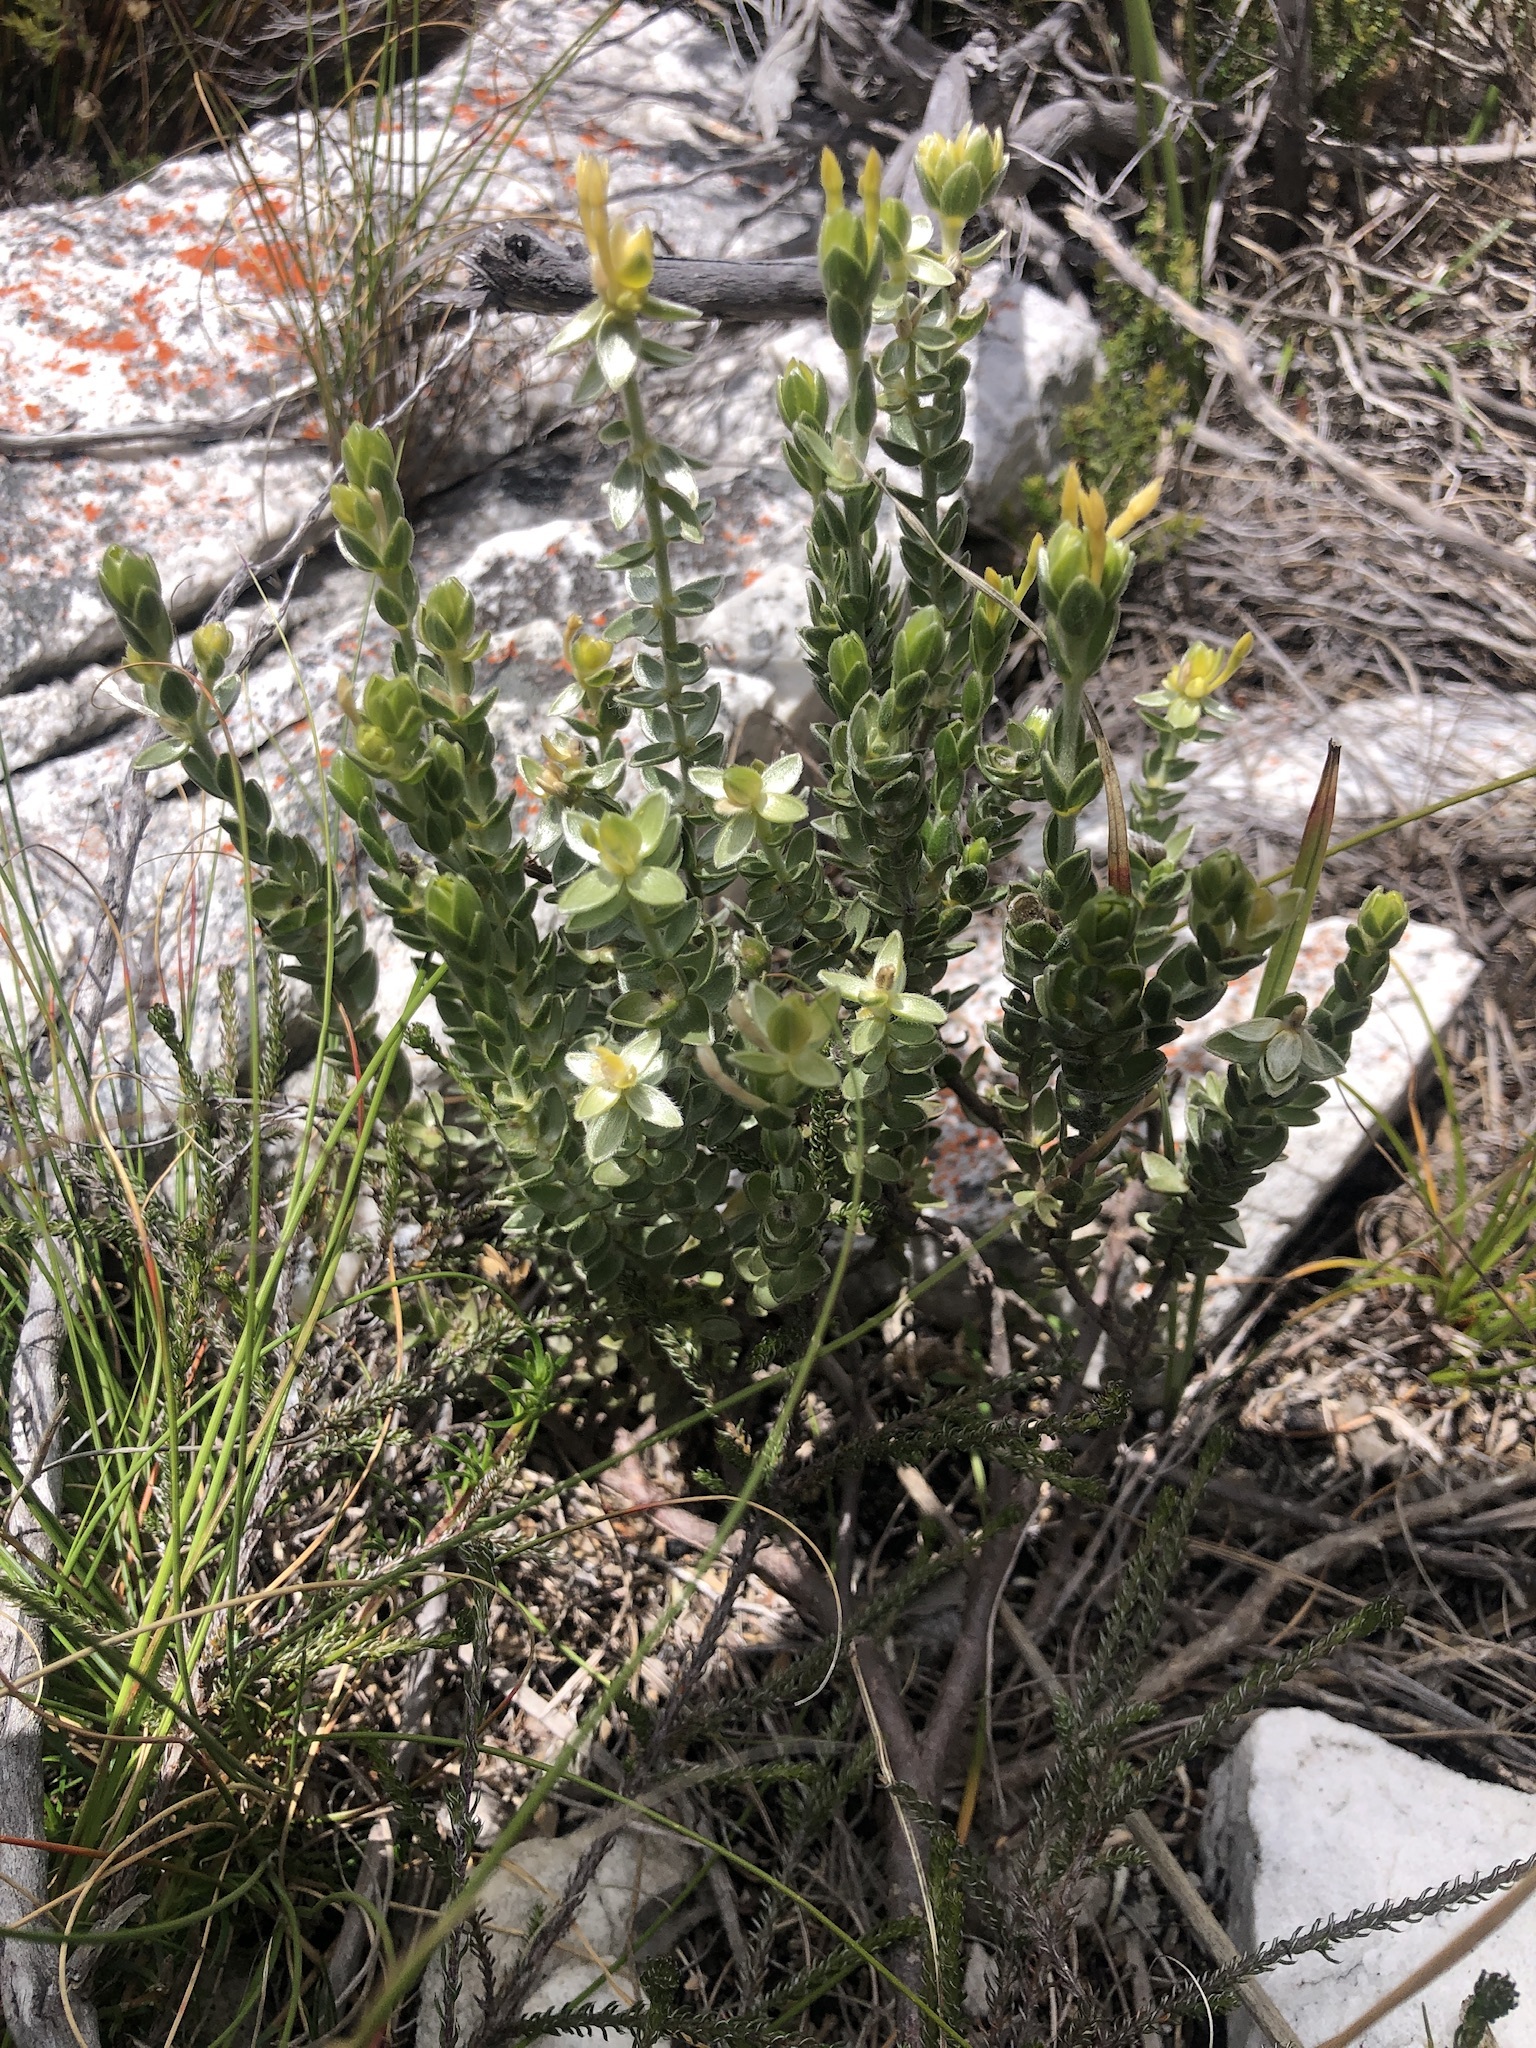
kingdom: Plantae
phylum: Tracheophyta
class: Magnoliopsida
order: Malvales
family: Thymelaeaceae
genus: Gnidia
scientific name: Gnidia anomala
